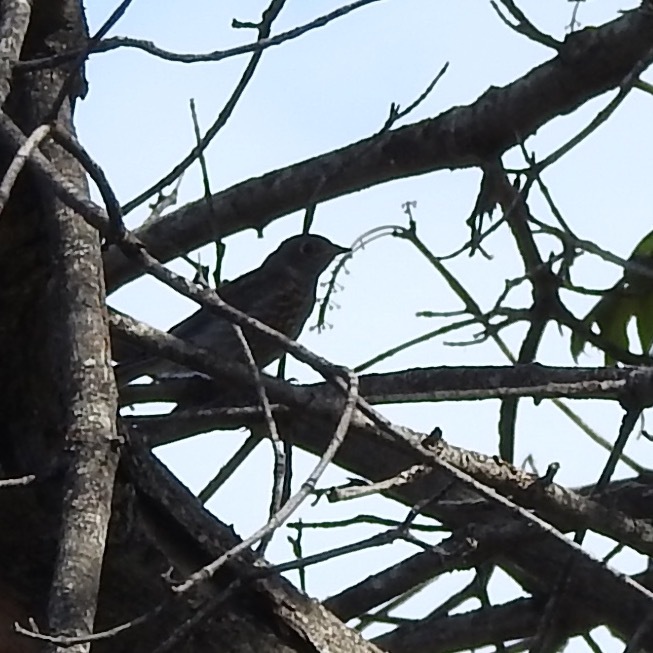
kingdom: Animalia
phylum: Chordata
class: Aves
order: Passeriformes
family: Turdidae
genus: Sialia
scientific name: Sialia mexicana
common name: Western bluebird
